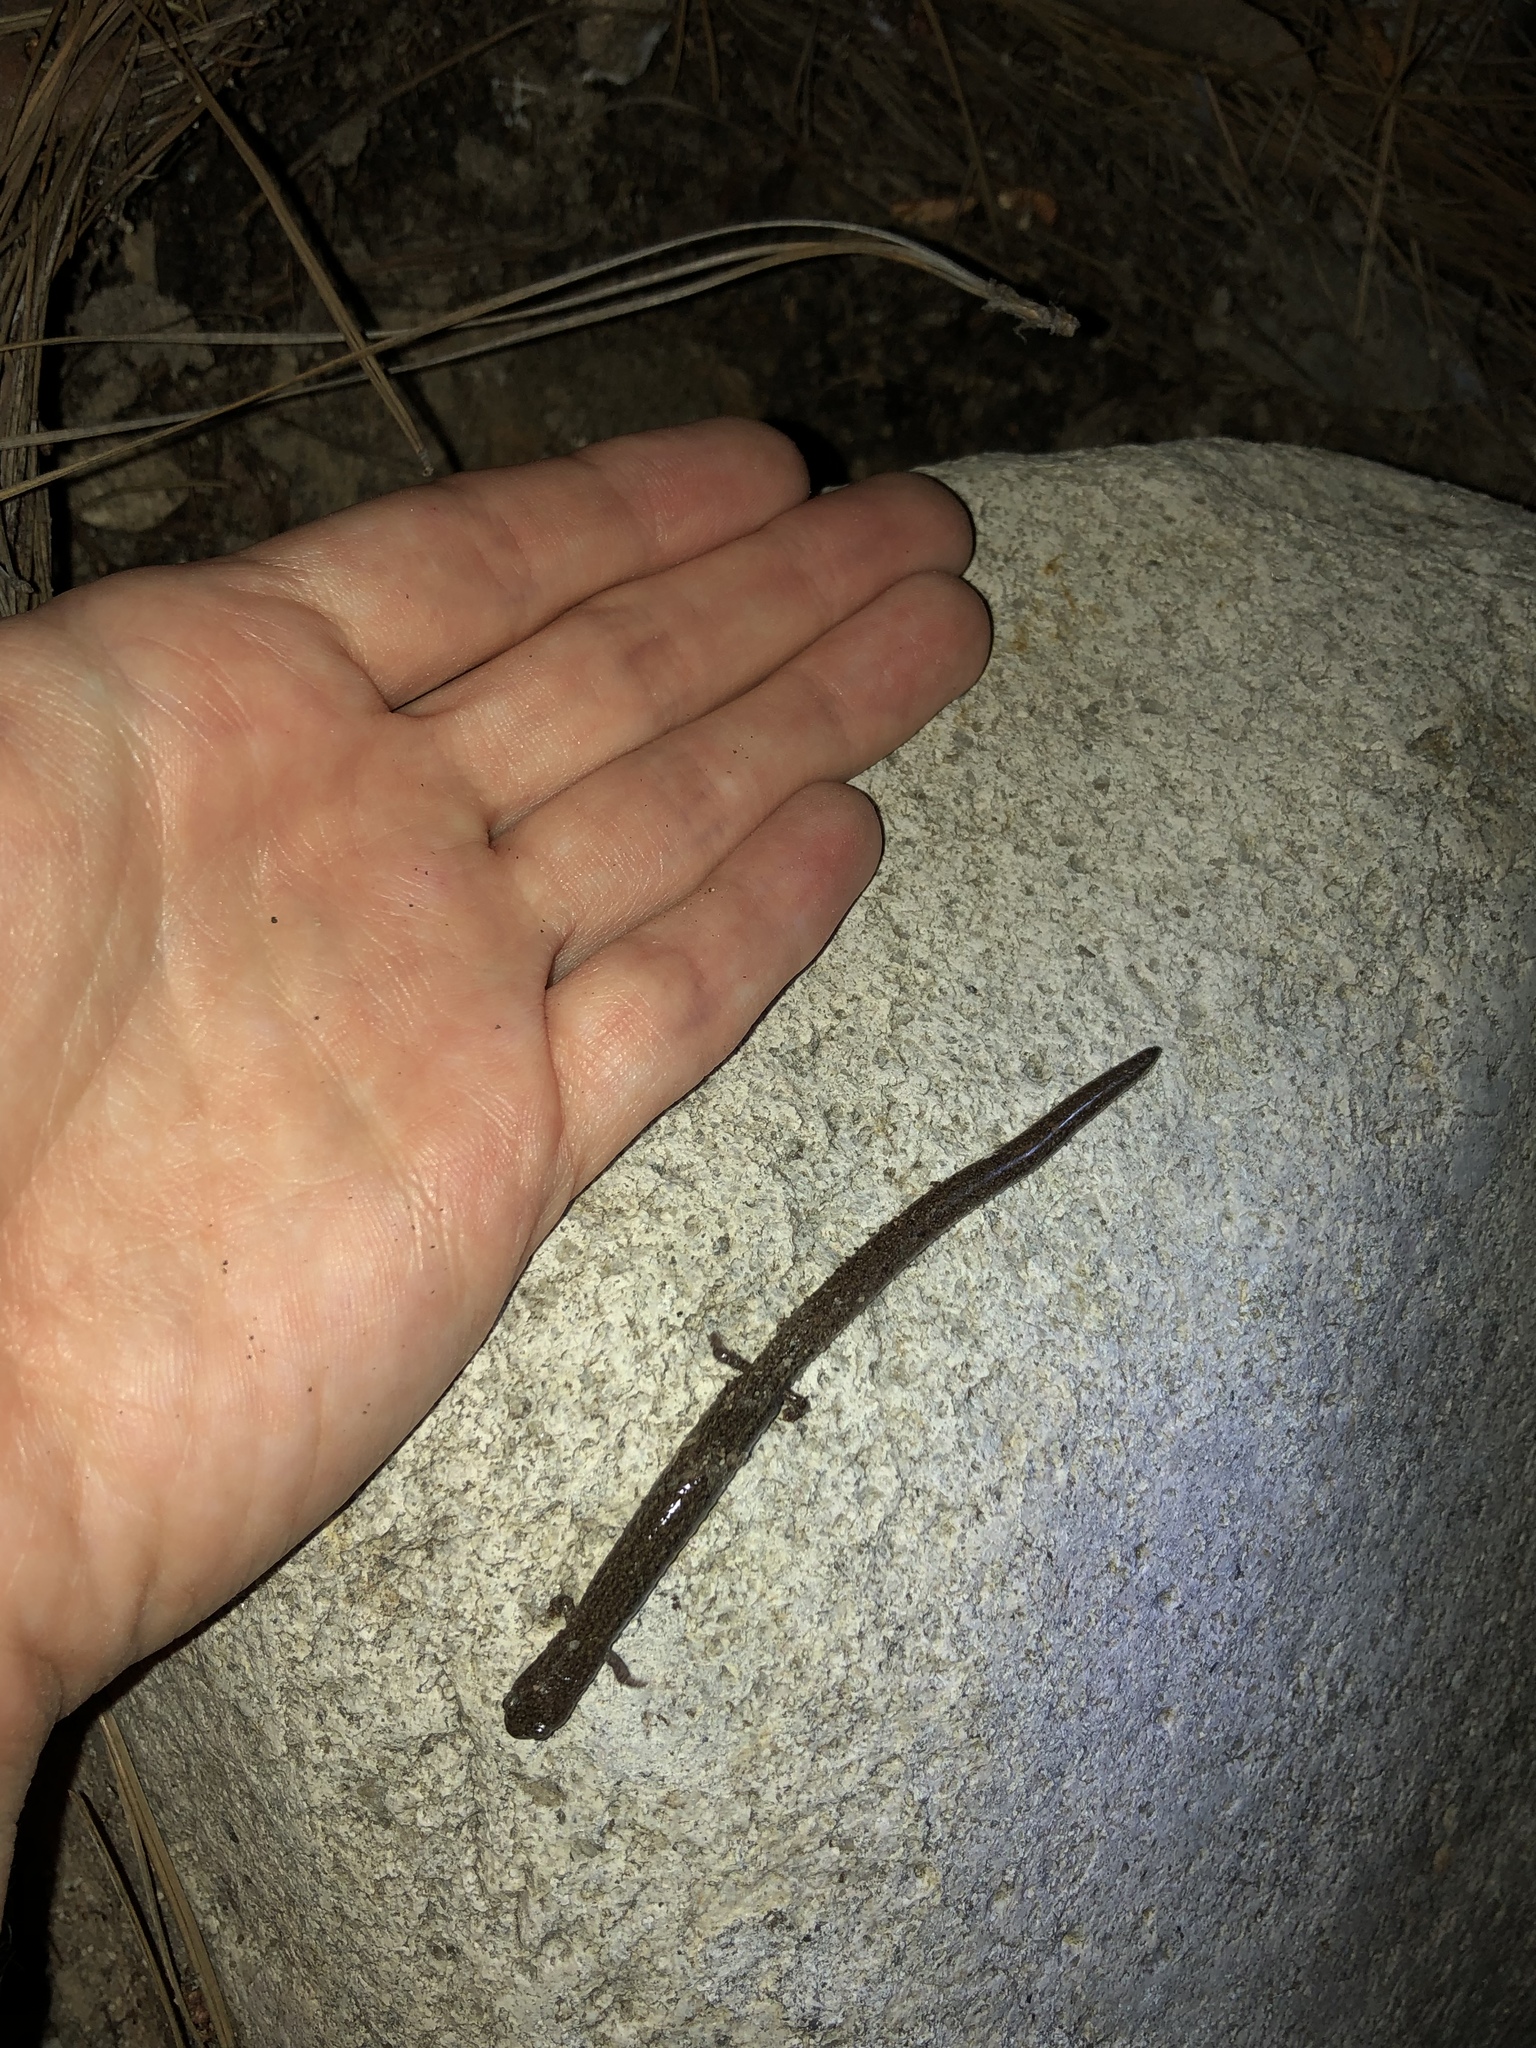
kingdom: Animalia
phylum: Chordata
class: Amphibia
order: Caudata
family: Plethodontidae
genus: Batrachoseps
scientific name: Batrachoseps major
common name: Garden slender salamander
